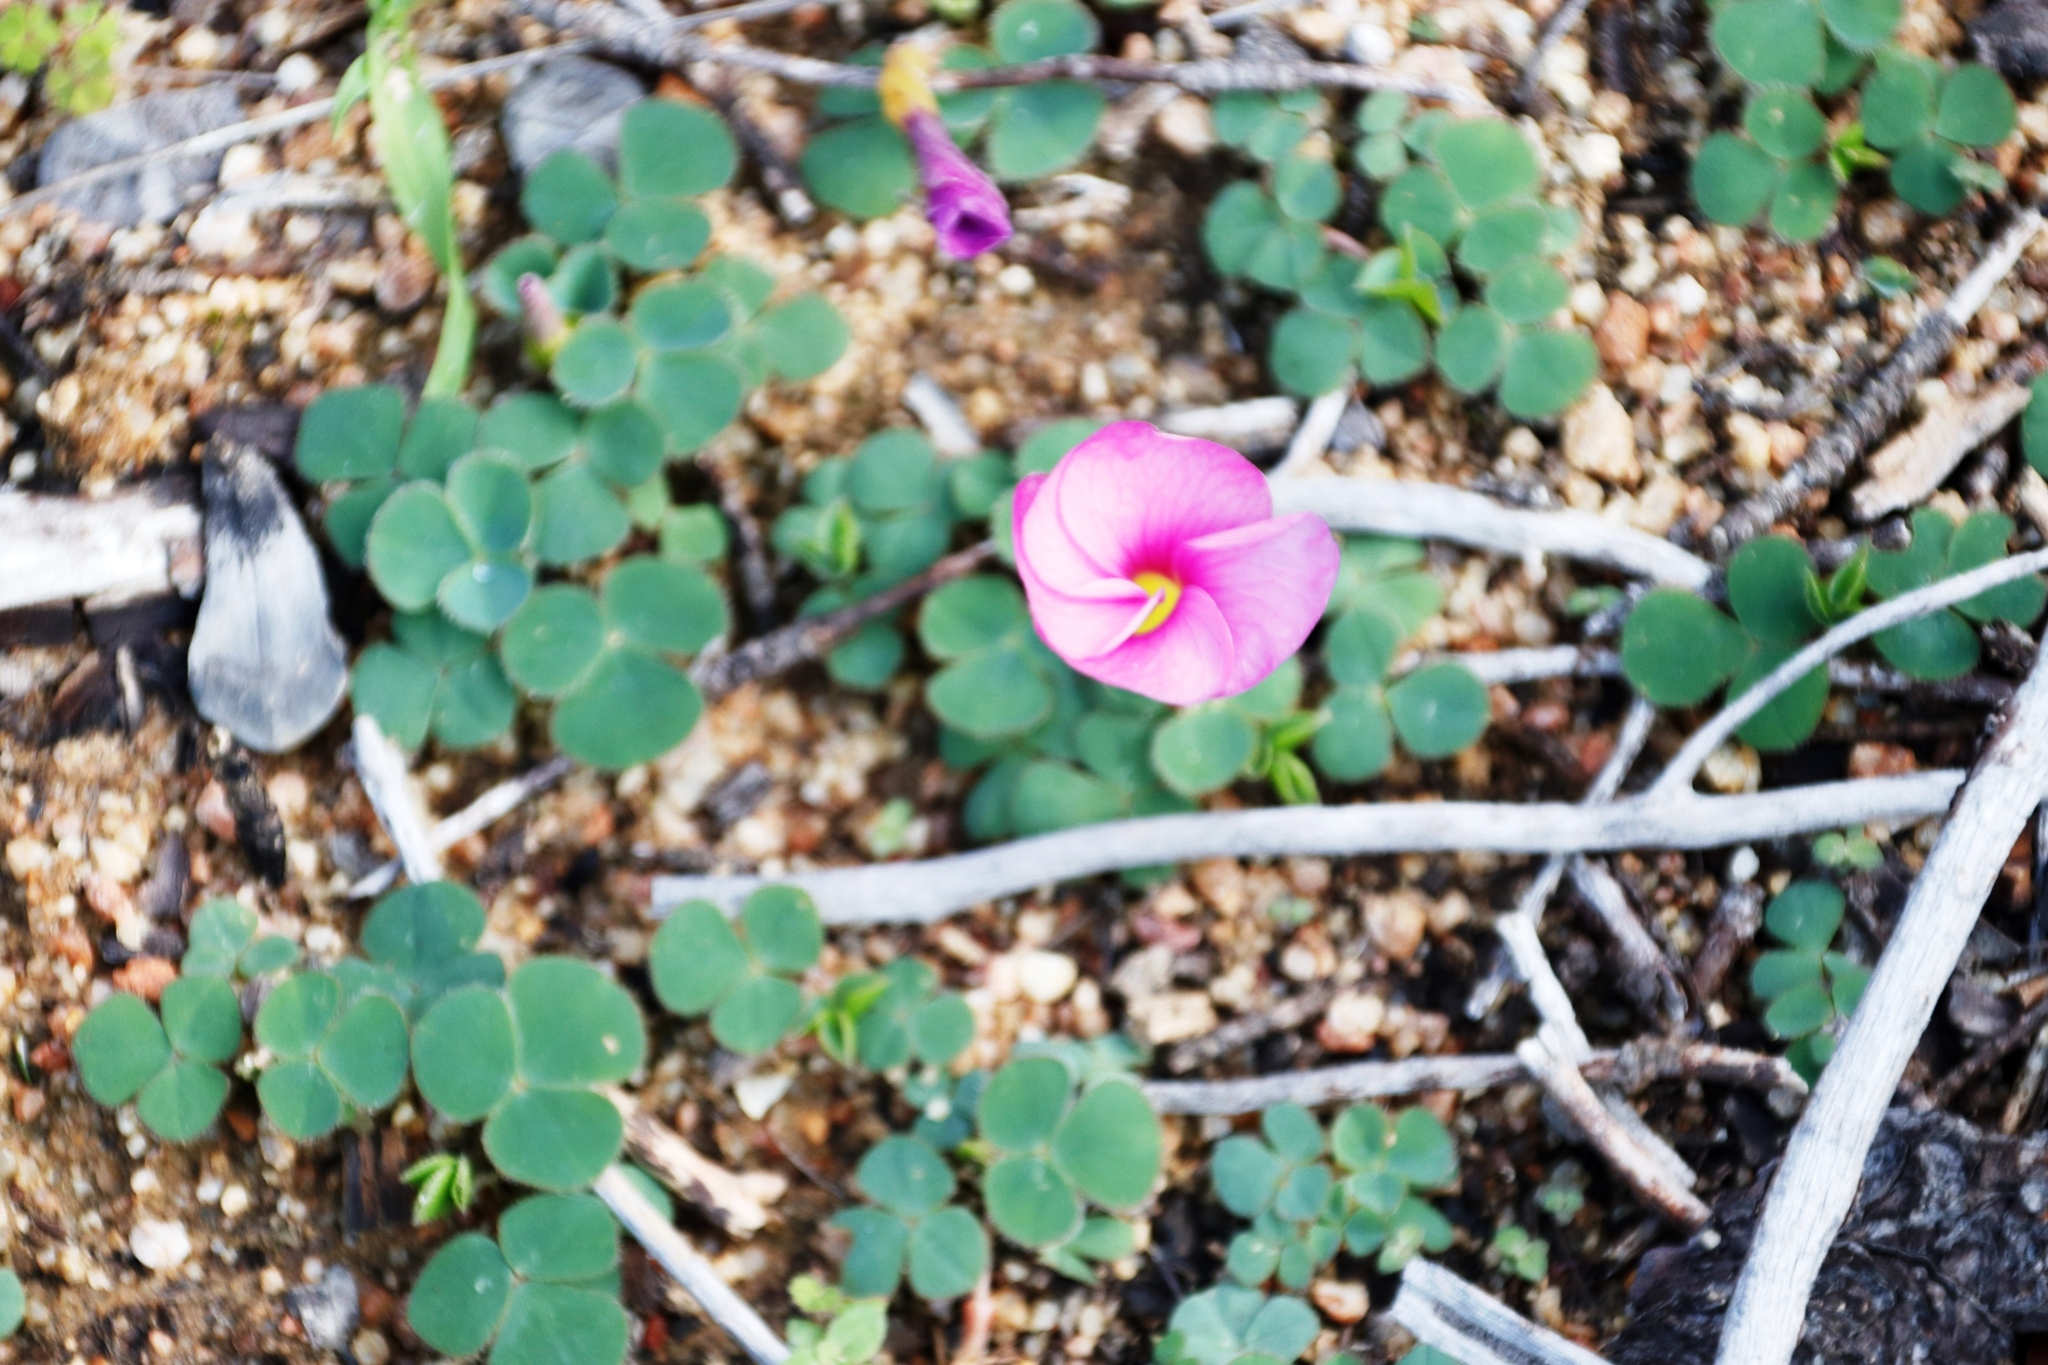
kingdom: Plantae
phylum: Tracheophyta
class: Magnoliopsida
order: Oxalidales
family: Oxalidaceae
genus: Oxalis
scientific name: Oxalis purpurea
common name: Purple woodsorrel
